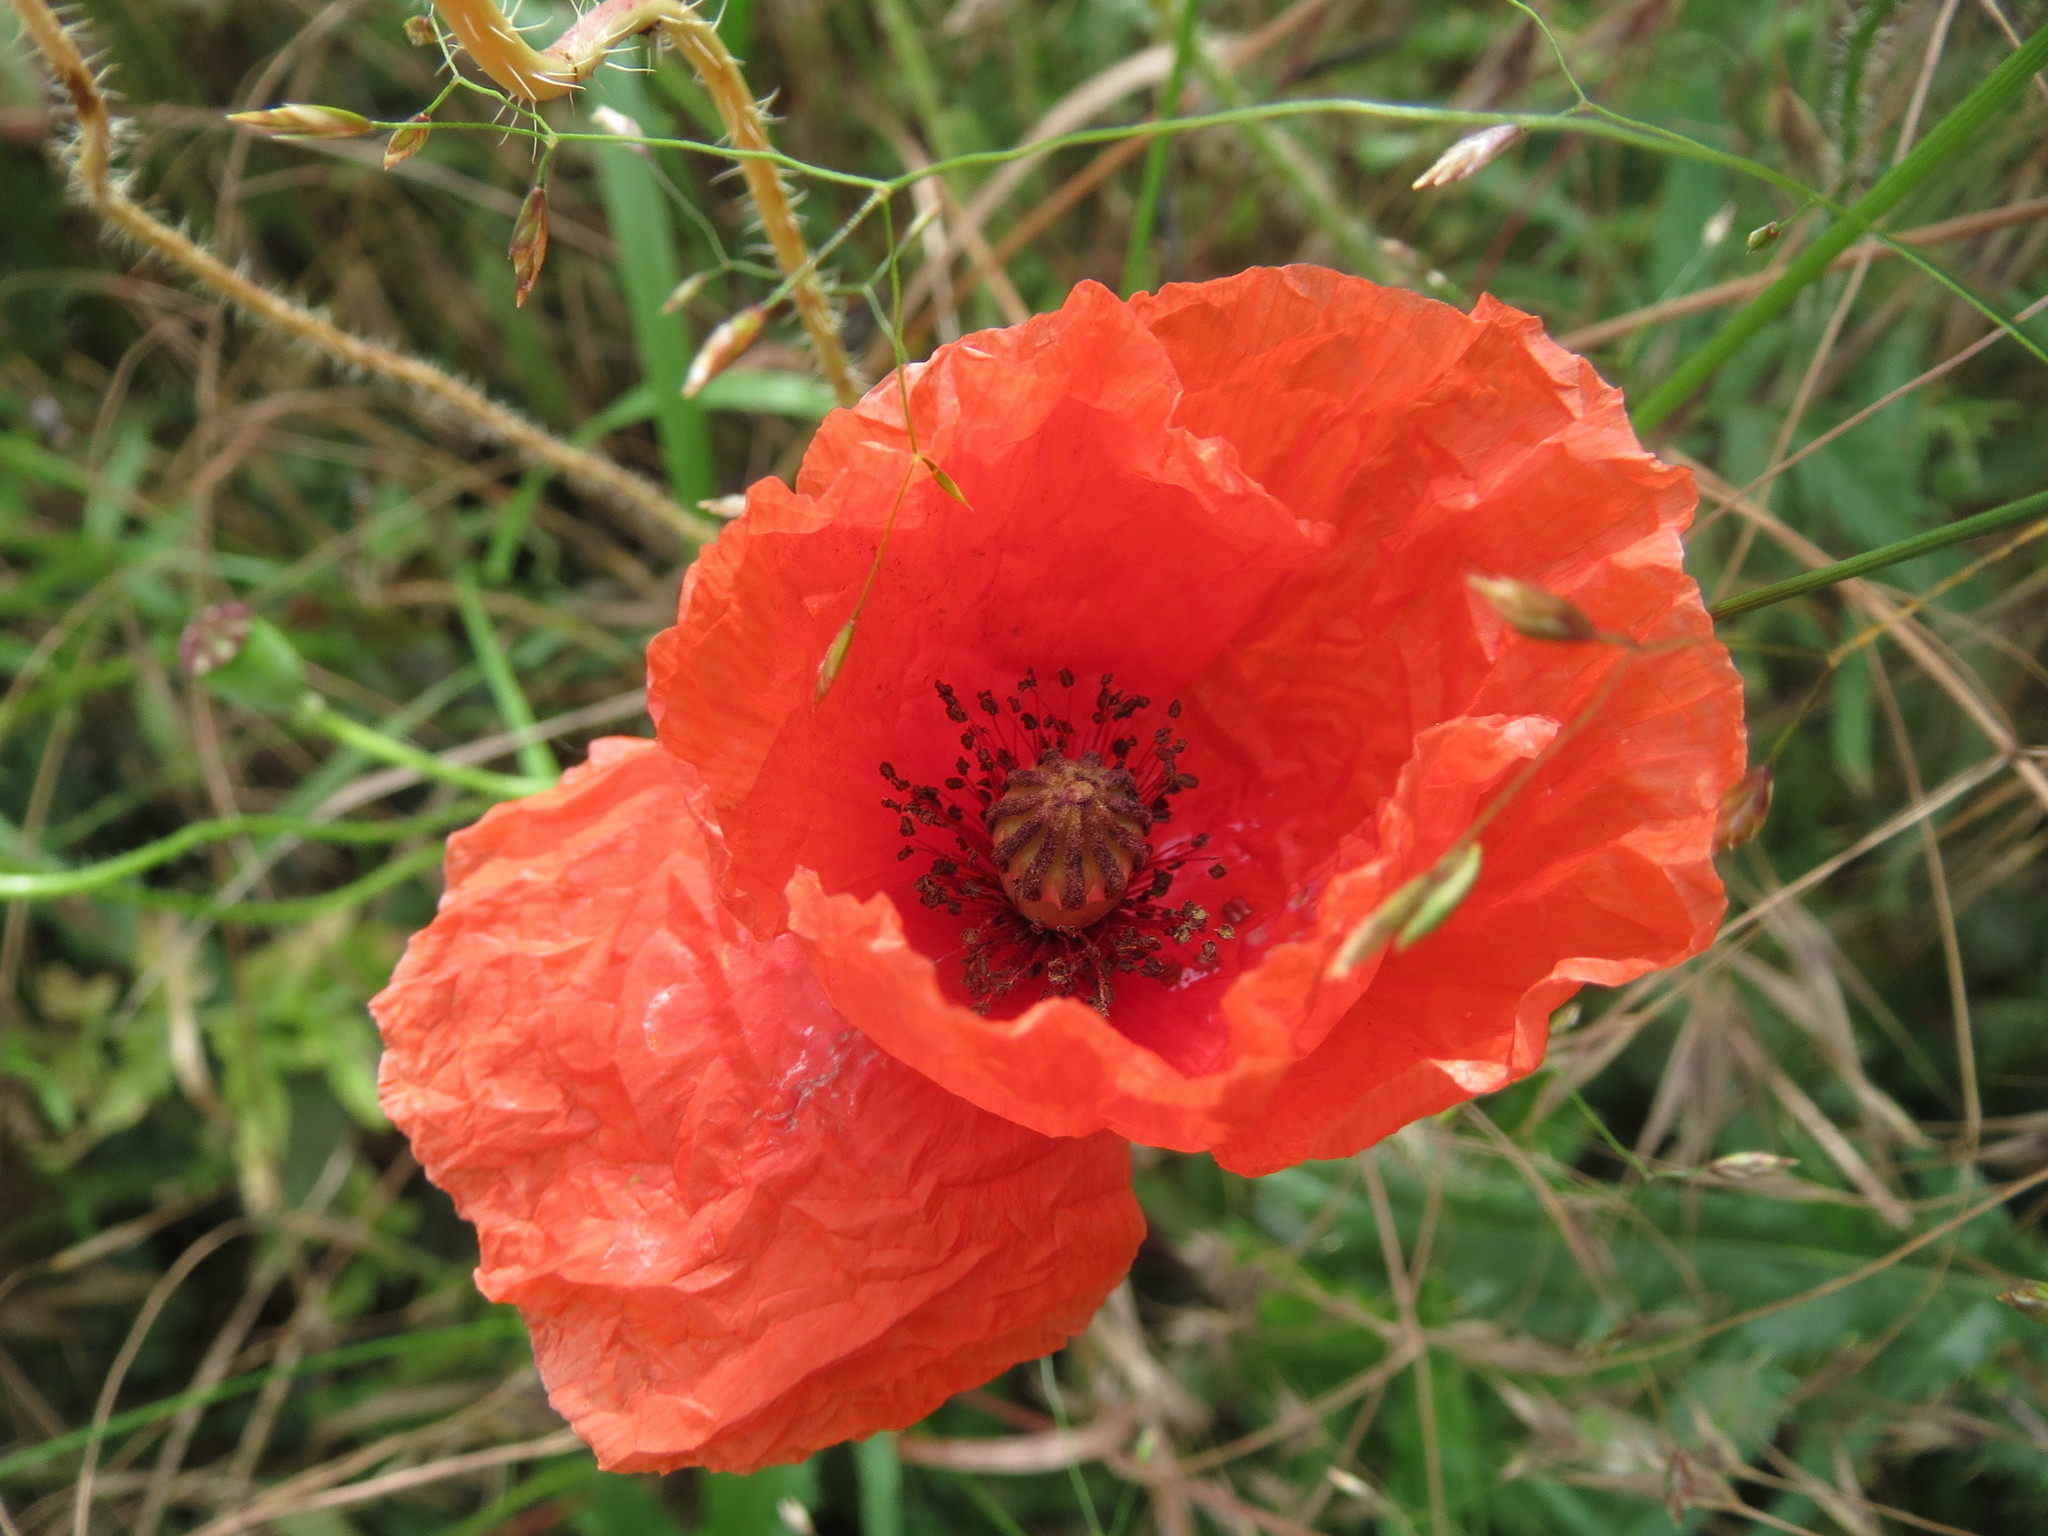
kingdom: Plantae
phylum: Tracheophyta
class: Magnoliopsida
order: Ranunculales
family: Papaveraceae
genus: Papaver
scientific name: Papaver rhoeas
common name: Corn poppy
